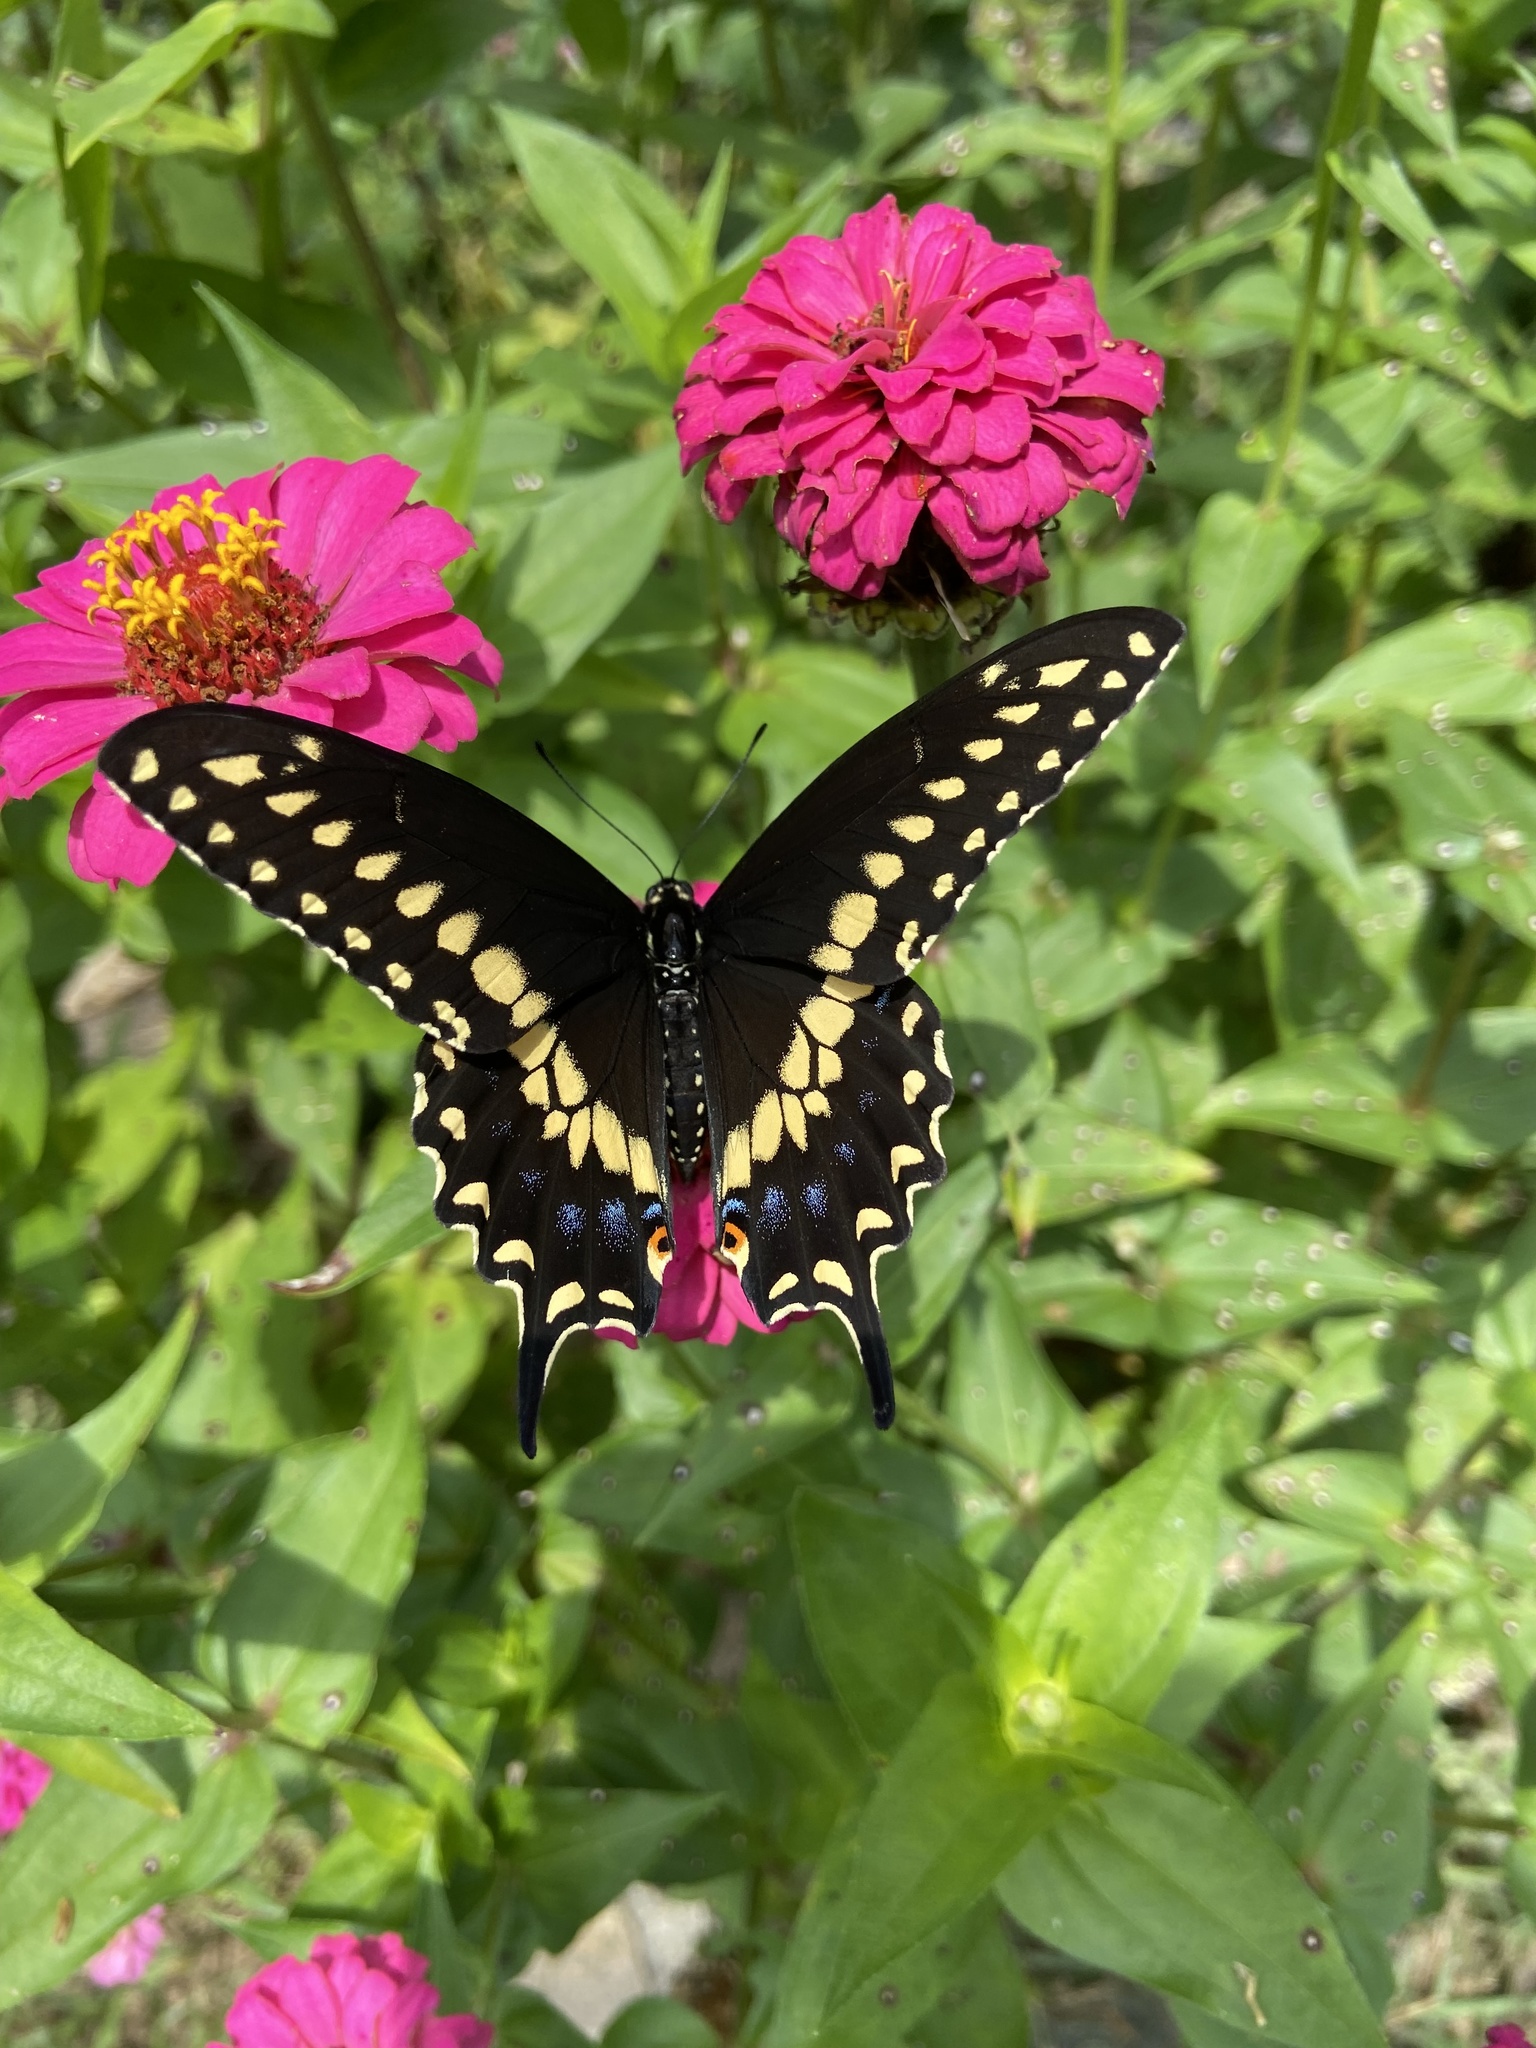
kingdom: Animalia
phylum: Arthropoda
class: Insecta
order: Lepidoptera
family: Papilionidae
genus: Papilio
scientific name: Papilio polyxenes
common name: Black swallowtail
